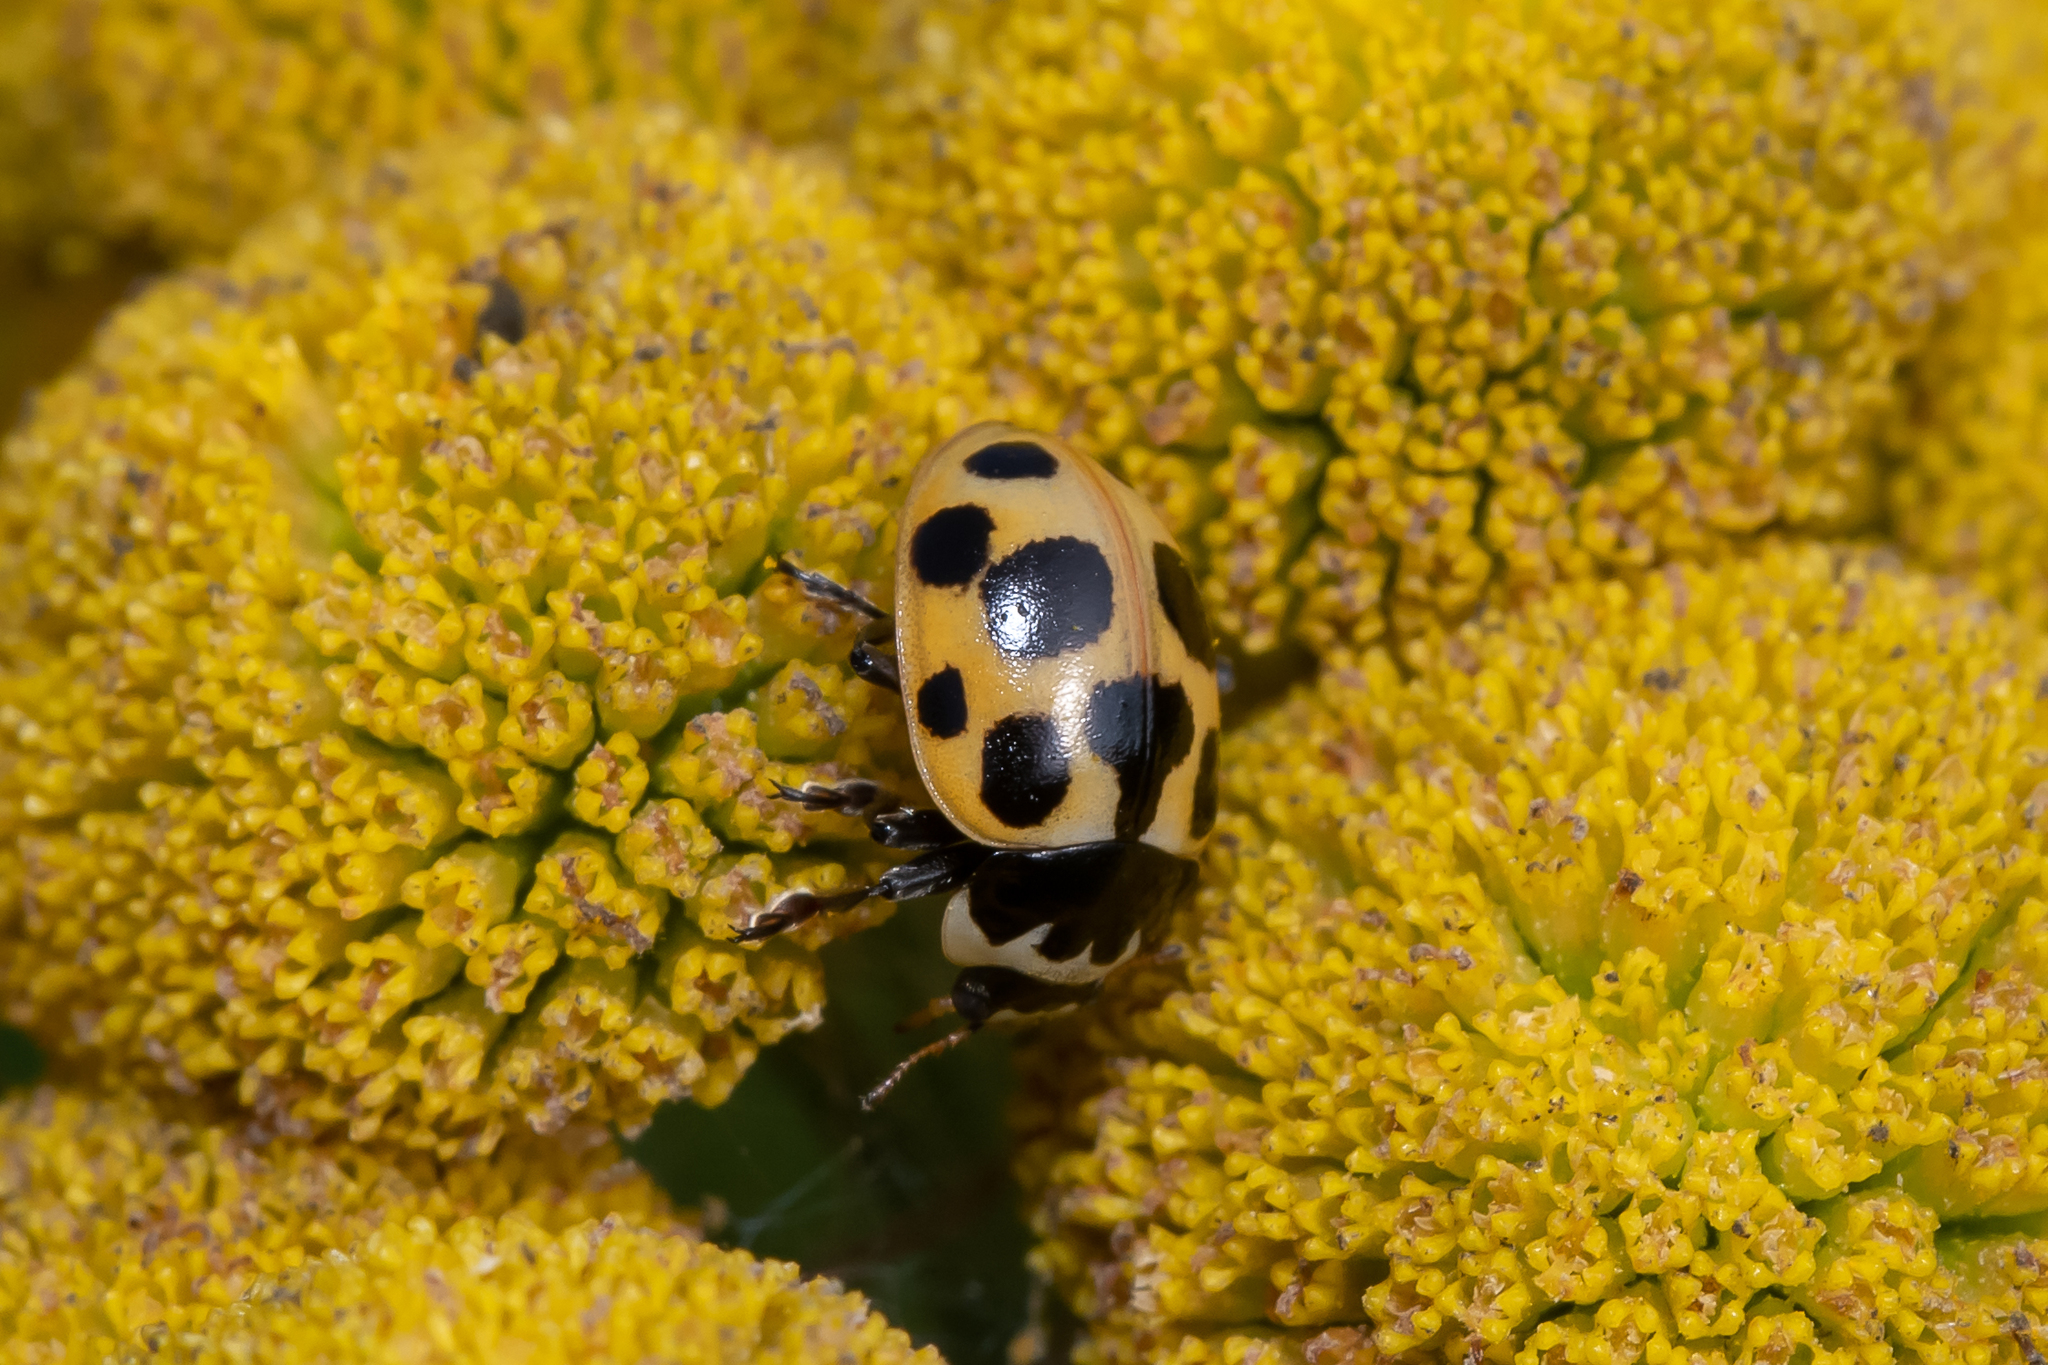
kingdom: Animalia
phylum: Arthropoda
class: Insecta
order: Coleoptera
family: Coccinellidae
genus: Ceratomegilla
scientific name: Ceratomegilla notata
